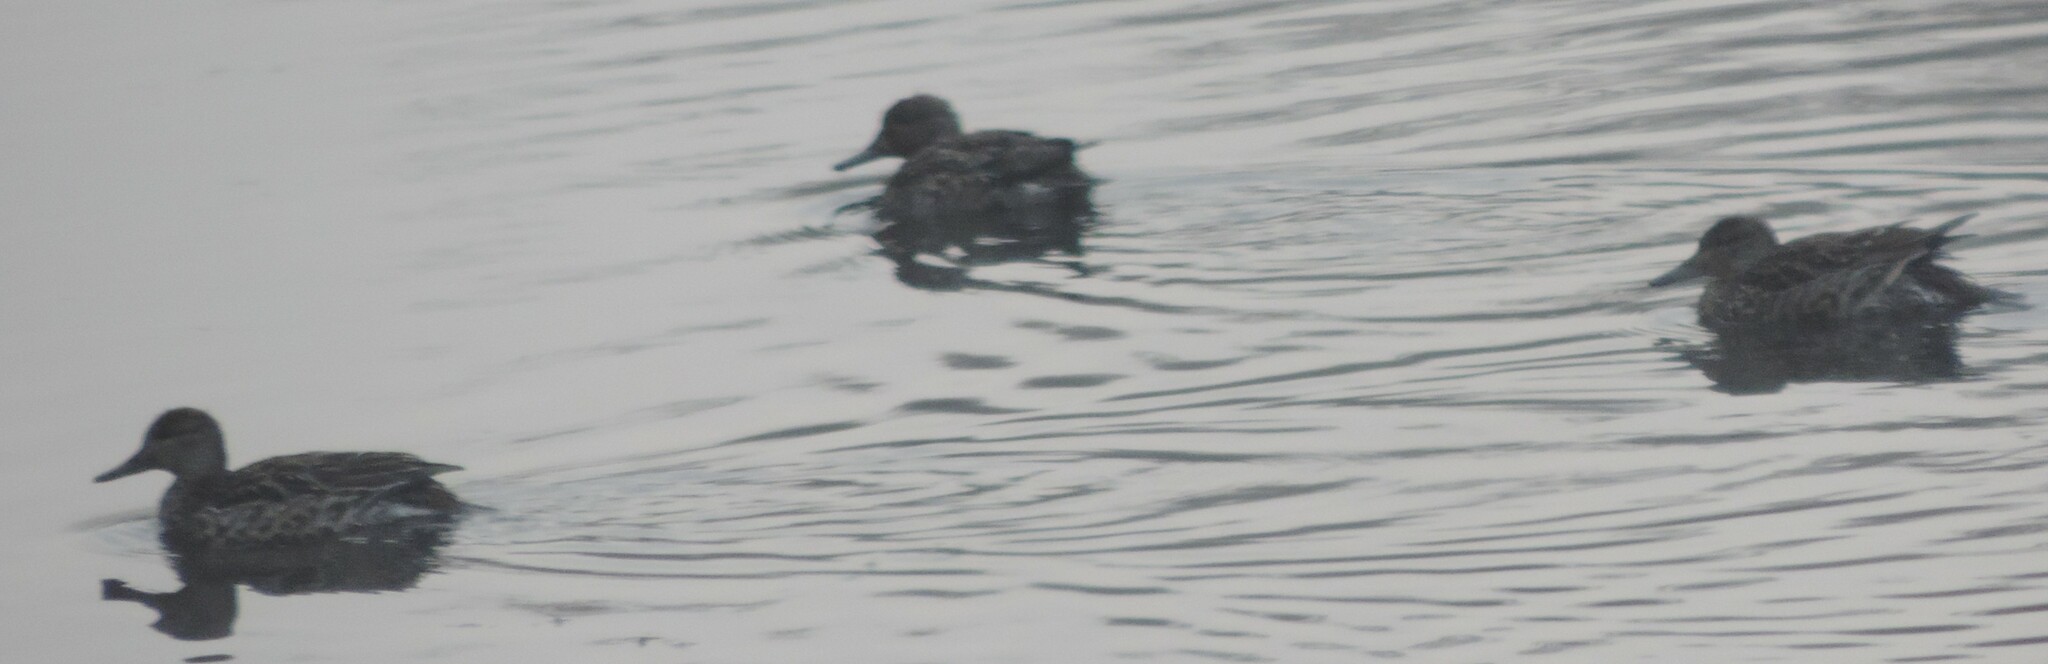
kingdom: Animalia
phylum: Chordata
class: Aves
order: Anseriformes
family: Anatidae
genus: Anas
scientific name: Anas crecca
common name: Eurasian teal
